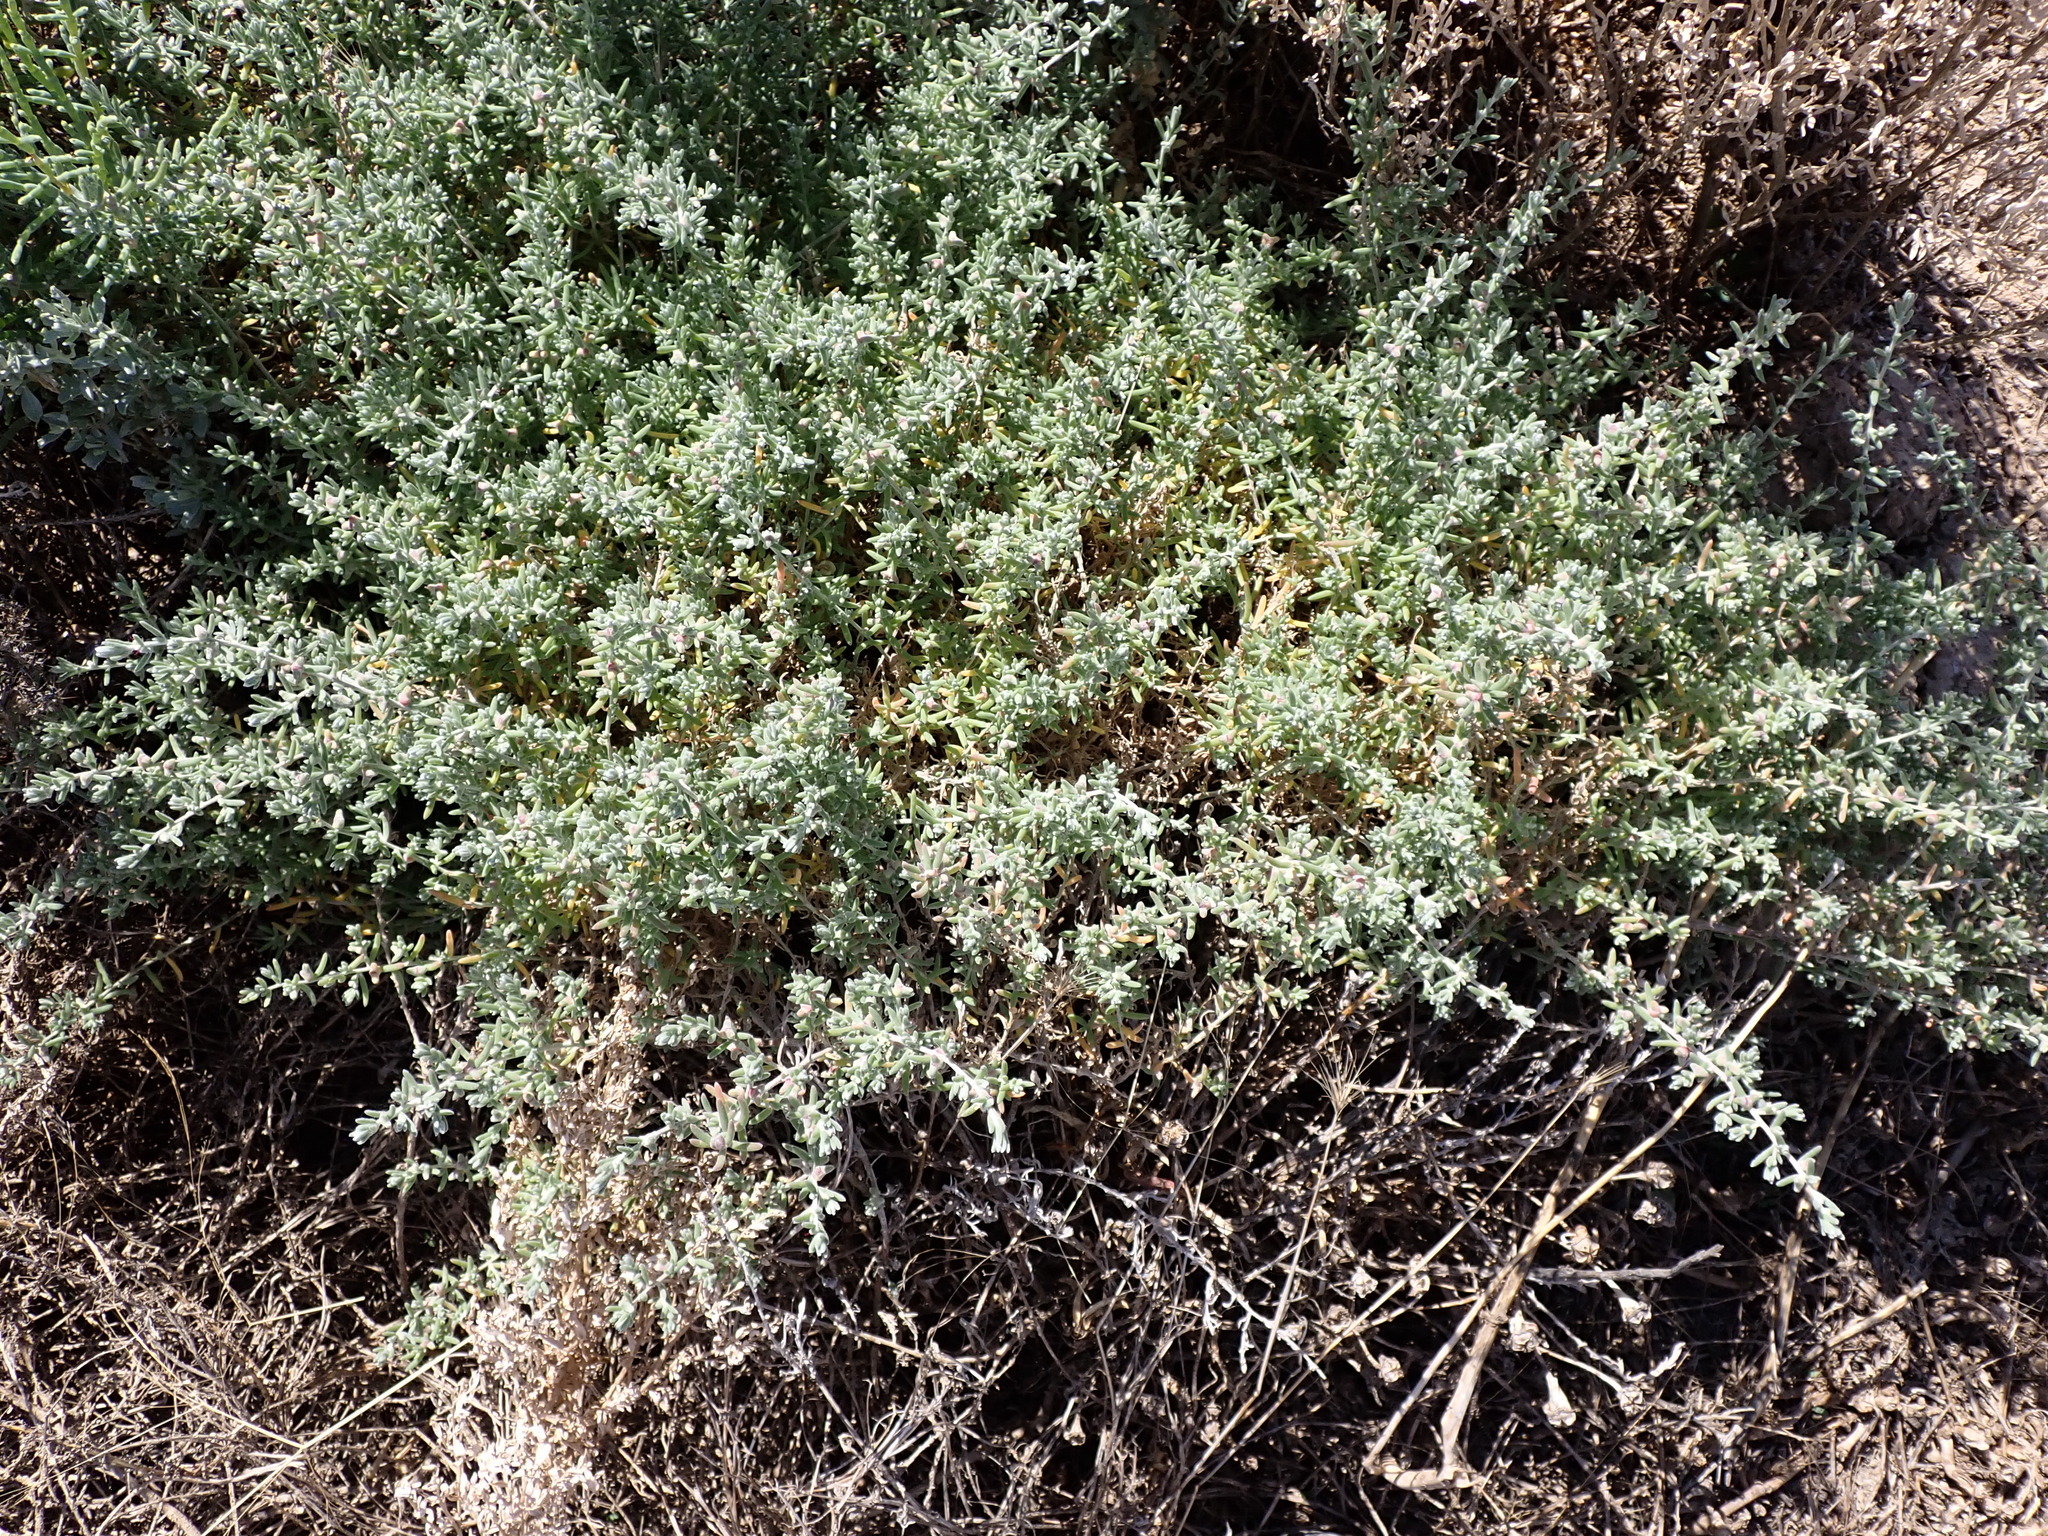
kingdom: Plantae
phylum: Tracheophyta
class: Magnoliopsida
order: Caryophyllales
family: Amaranthaceae
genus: Dissocarpus
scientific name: Dissocarpus biflorus
